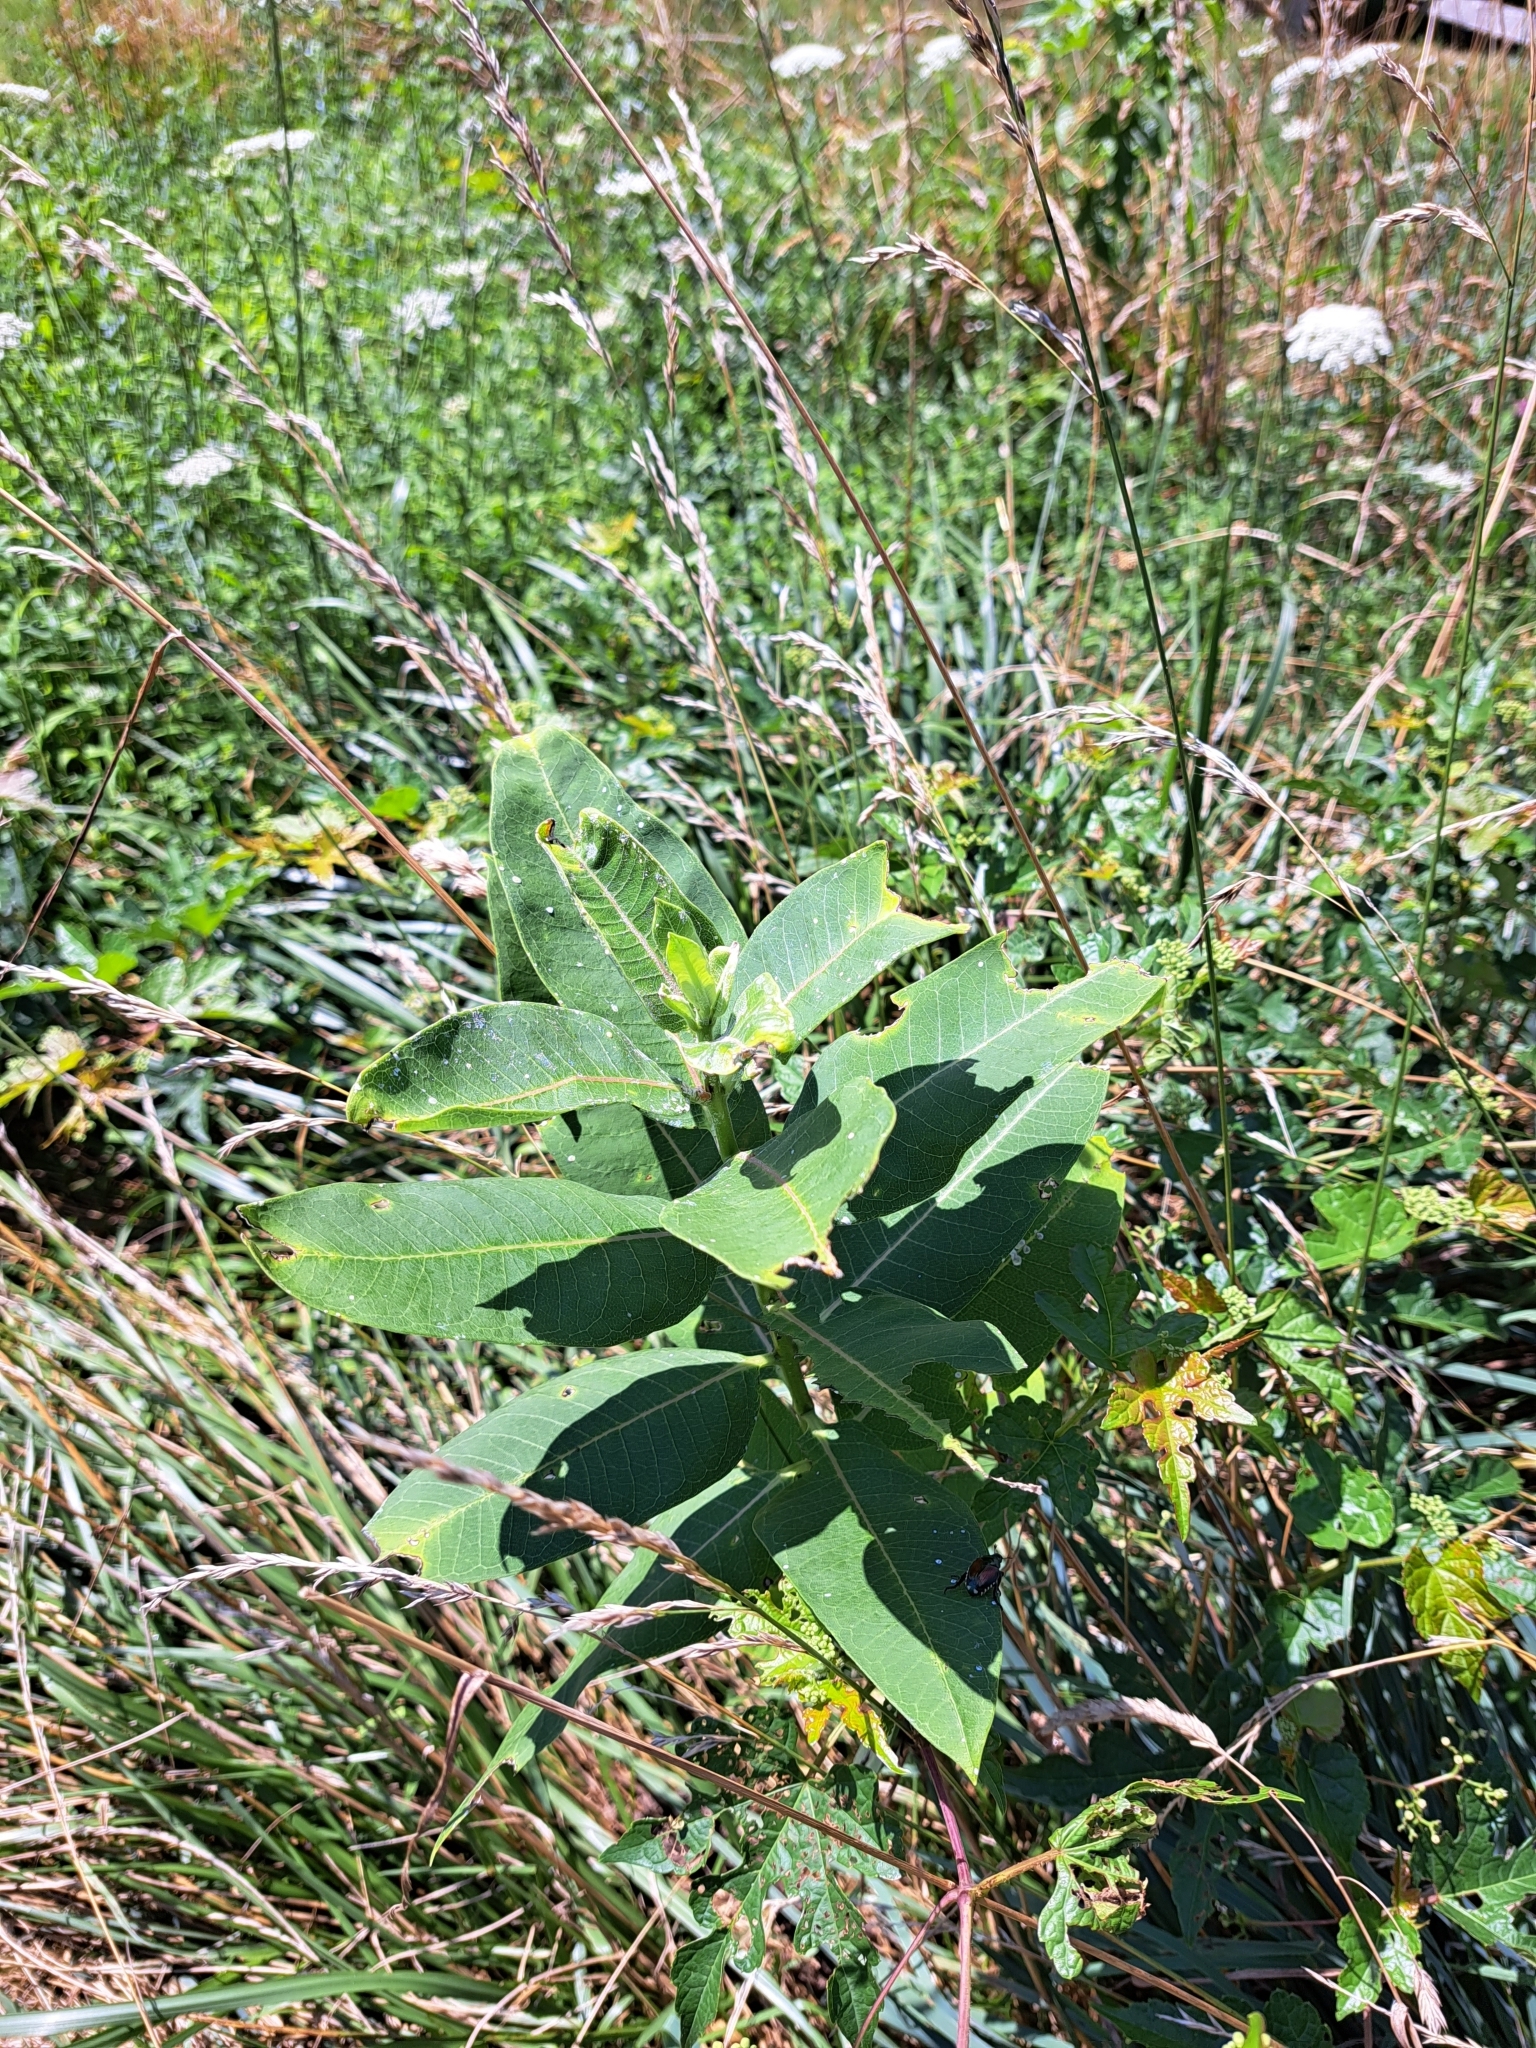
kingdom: Plantae
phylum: Tracheophyta
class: Magnoliopsida
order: Gentianales
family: Apocynaceae
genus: Asclepias
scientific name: Asclepias syriaca
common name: Common milkweed
